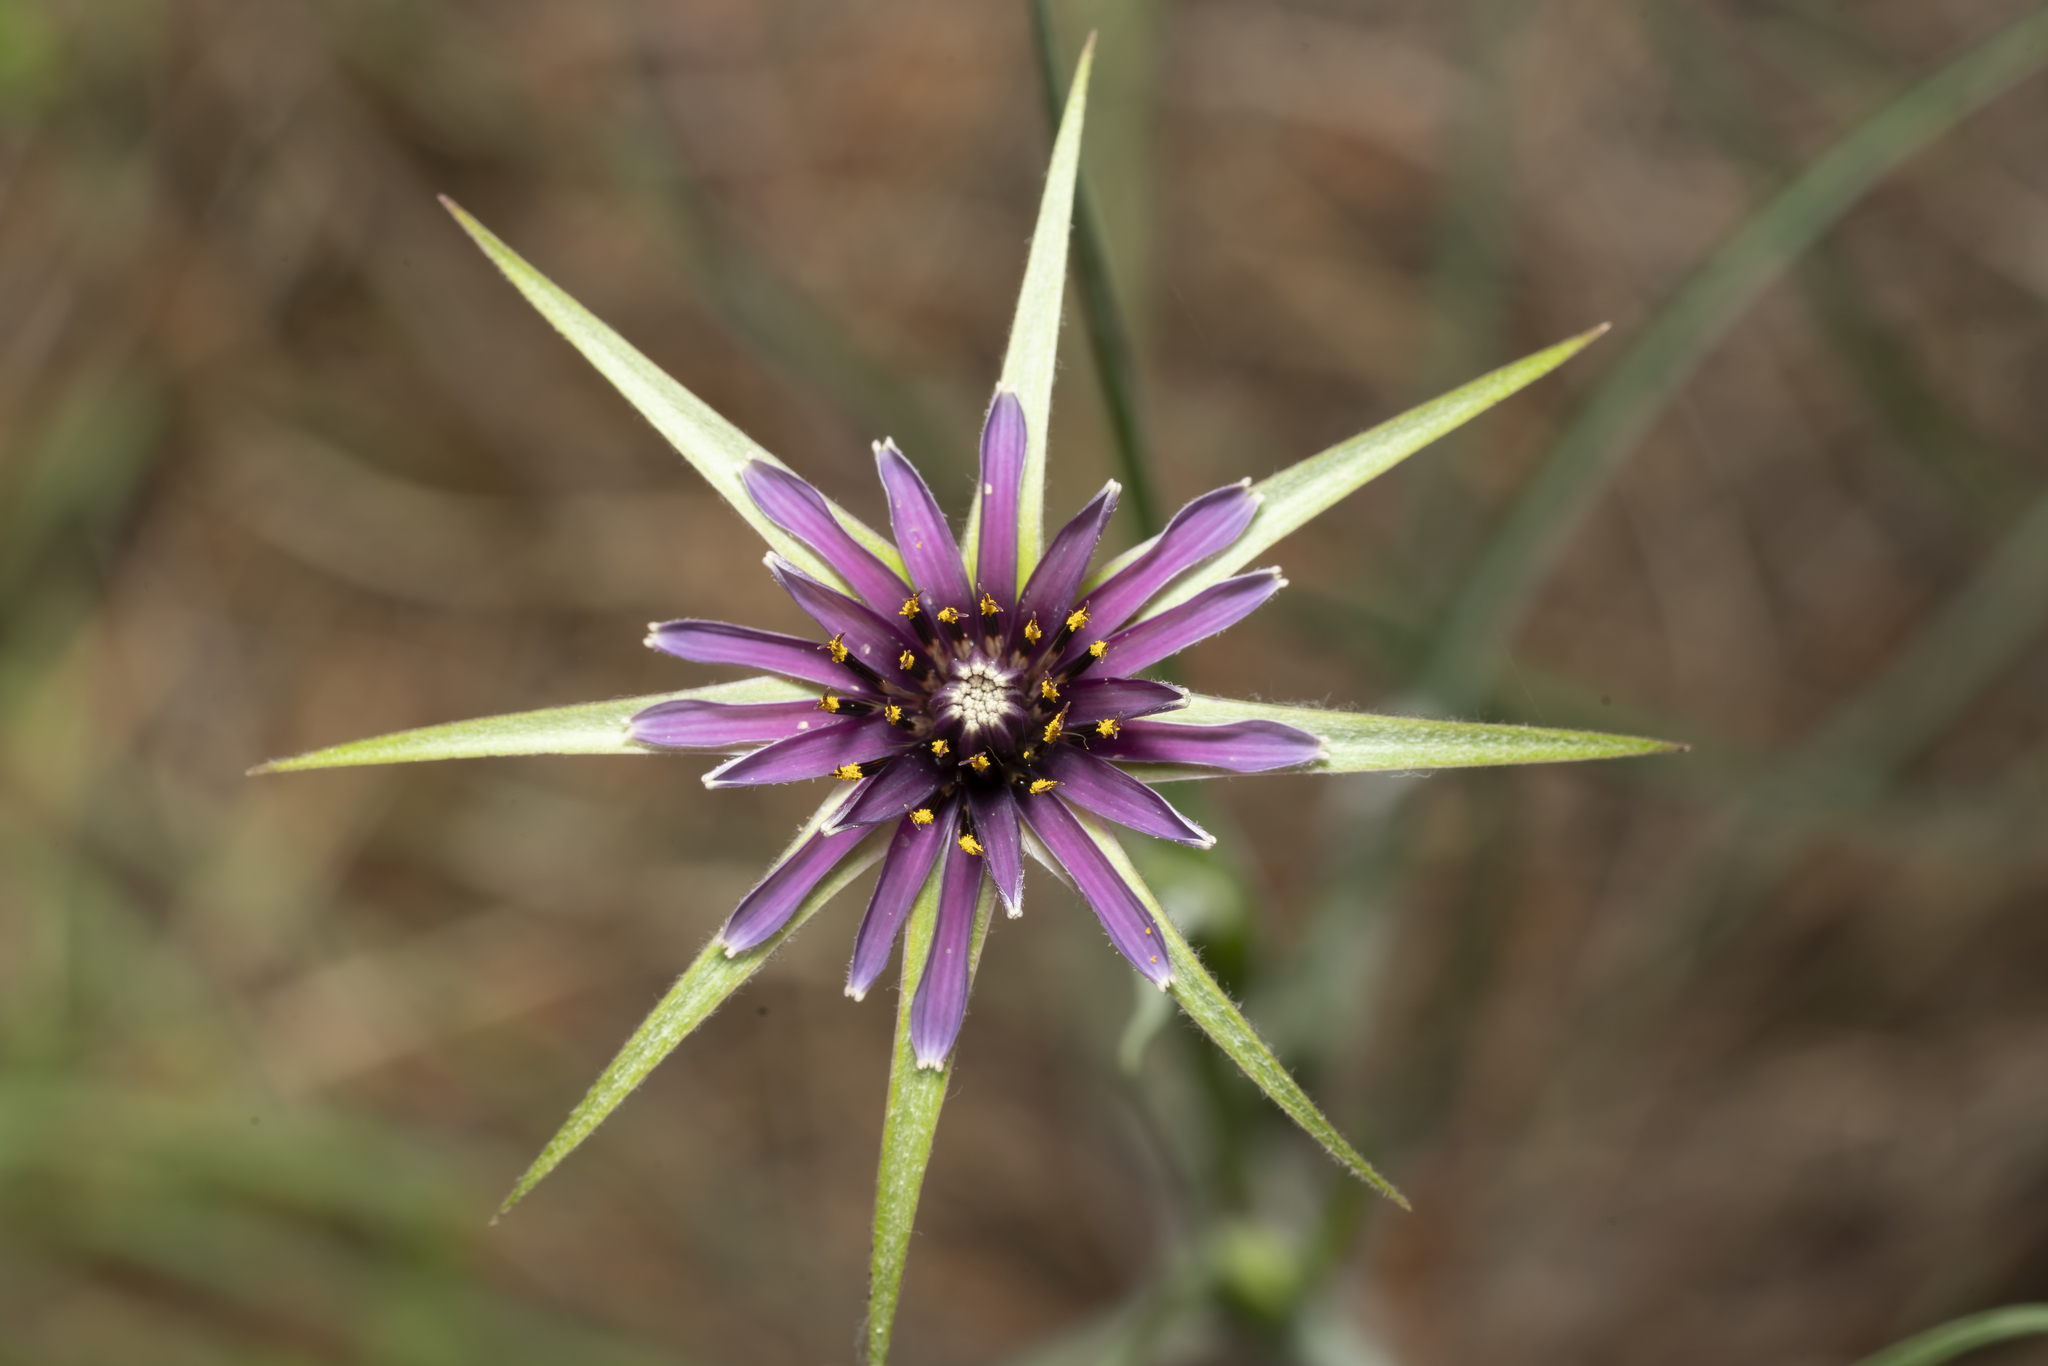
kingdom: Plantae
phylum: Tracheophyta
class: Magnoliopsida
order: Asterales
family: Asteraceae
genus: Tragopogon
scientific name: Tragopogon coelesyriacus
